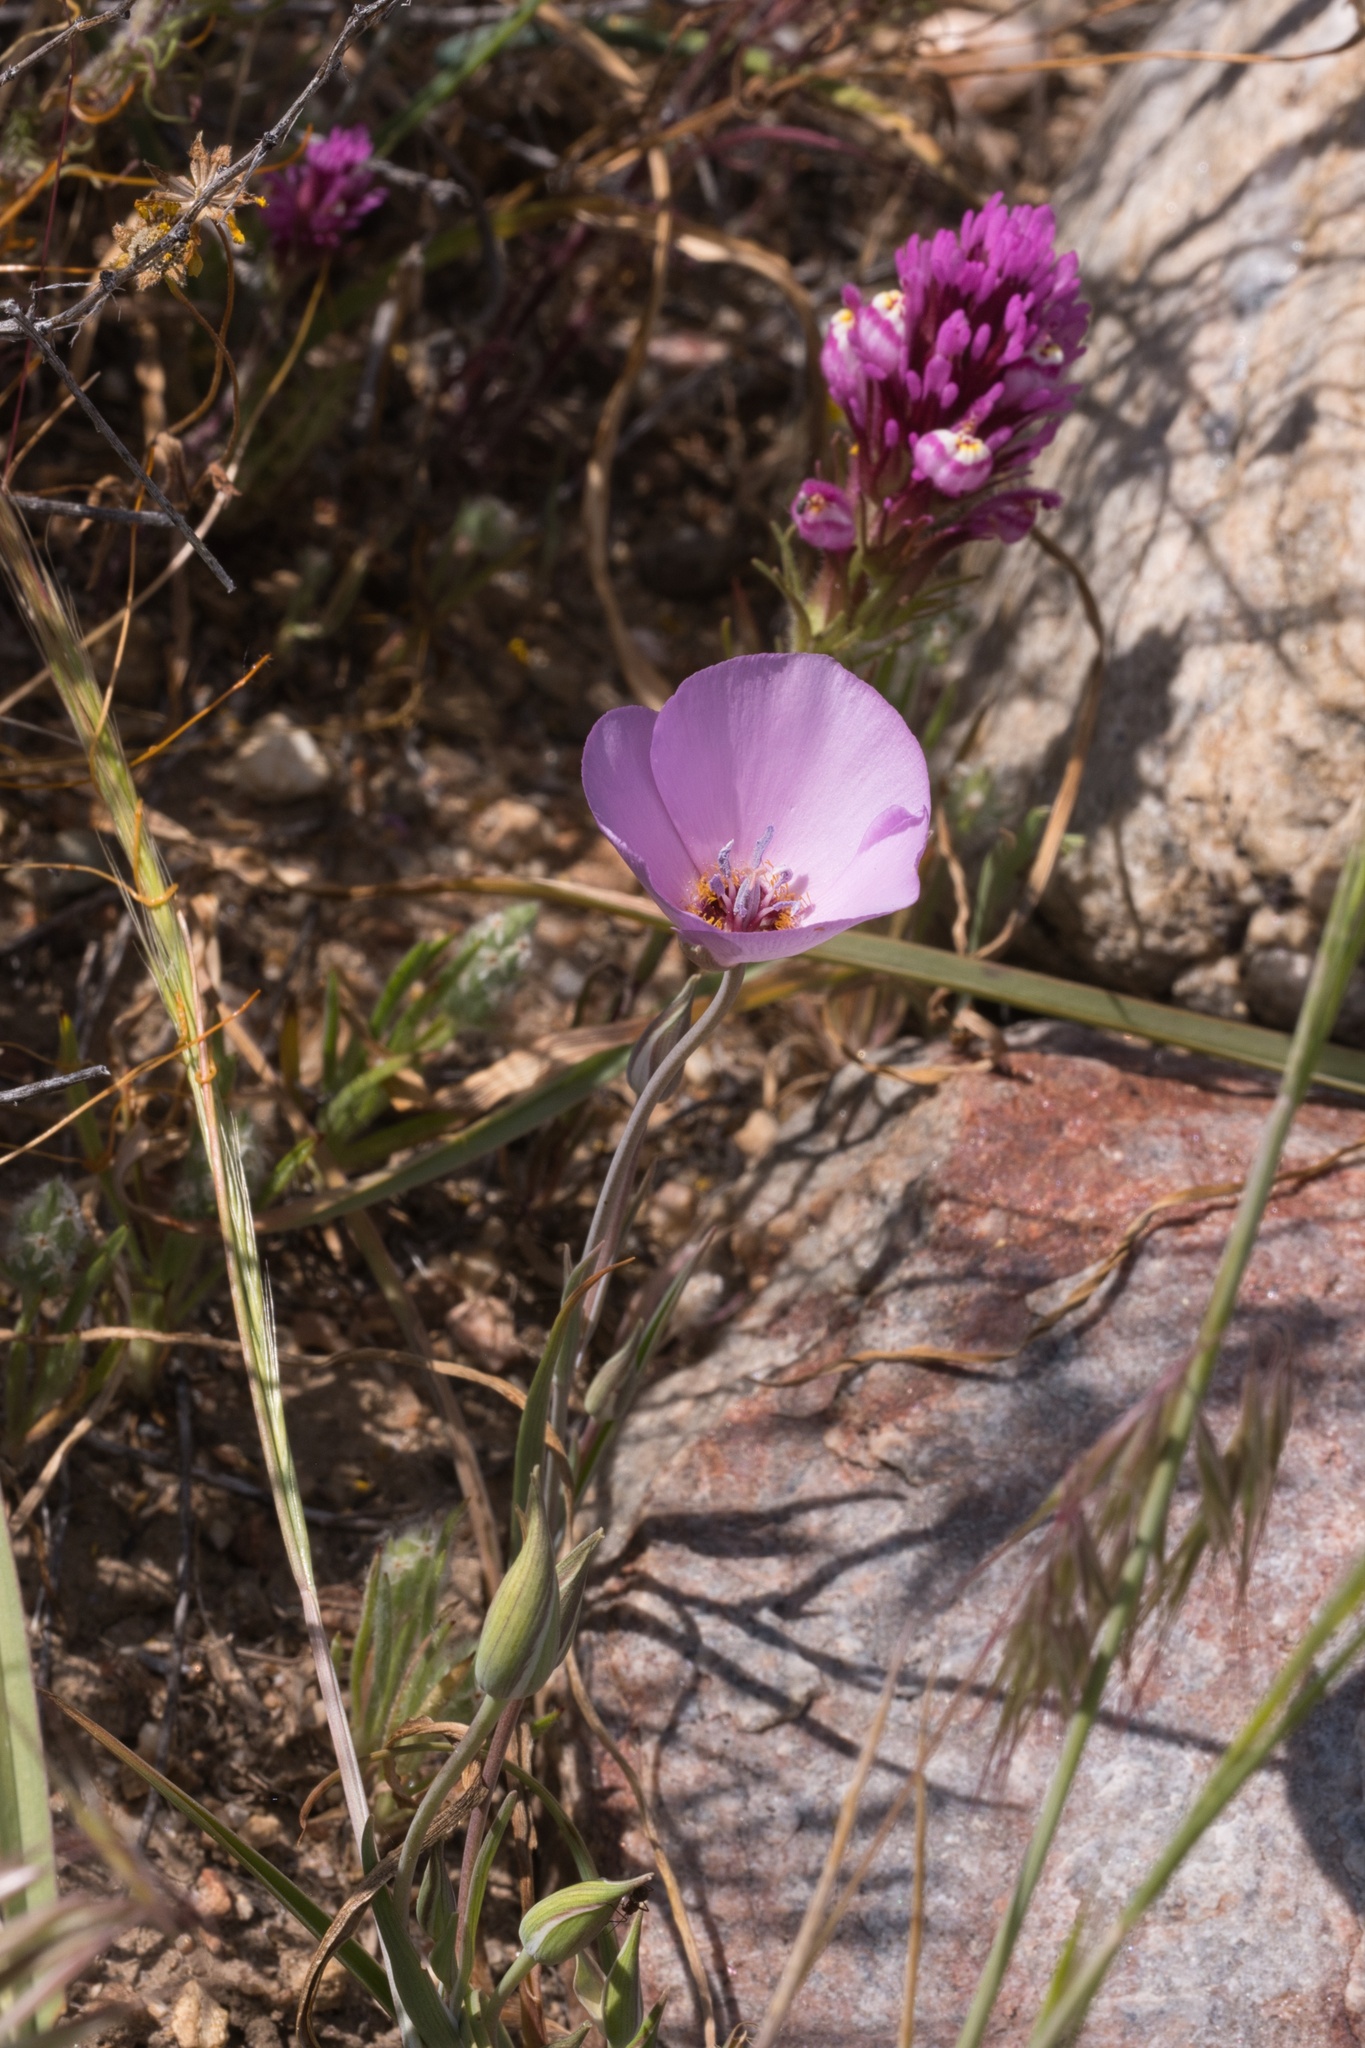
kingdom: Plantae
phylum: Tracheophyta
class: Liliopsida
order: Liliales
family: Liliaceae
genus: Calochortus
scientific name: Calochortus palmeri
